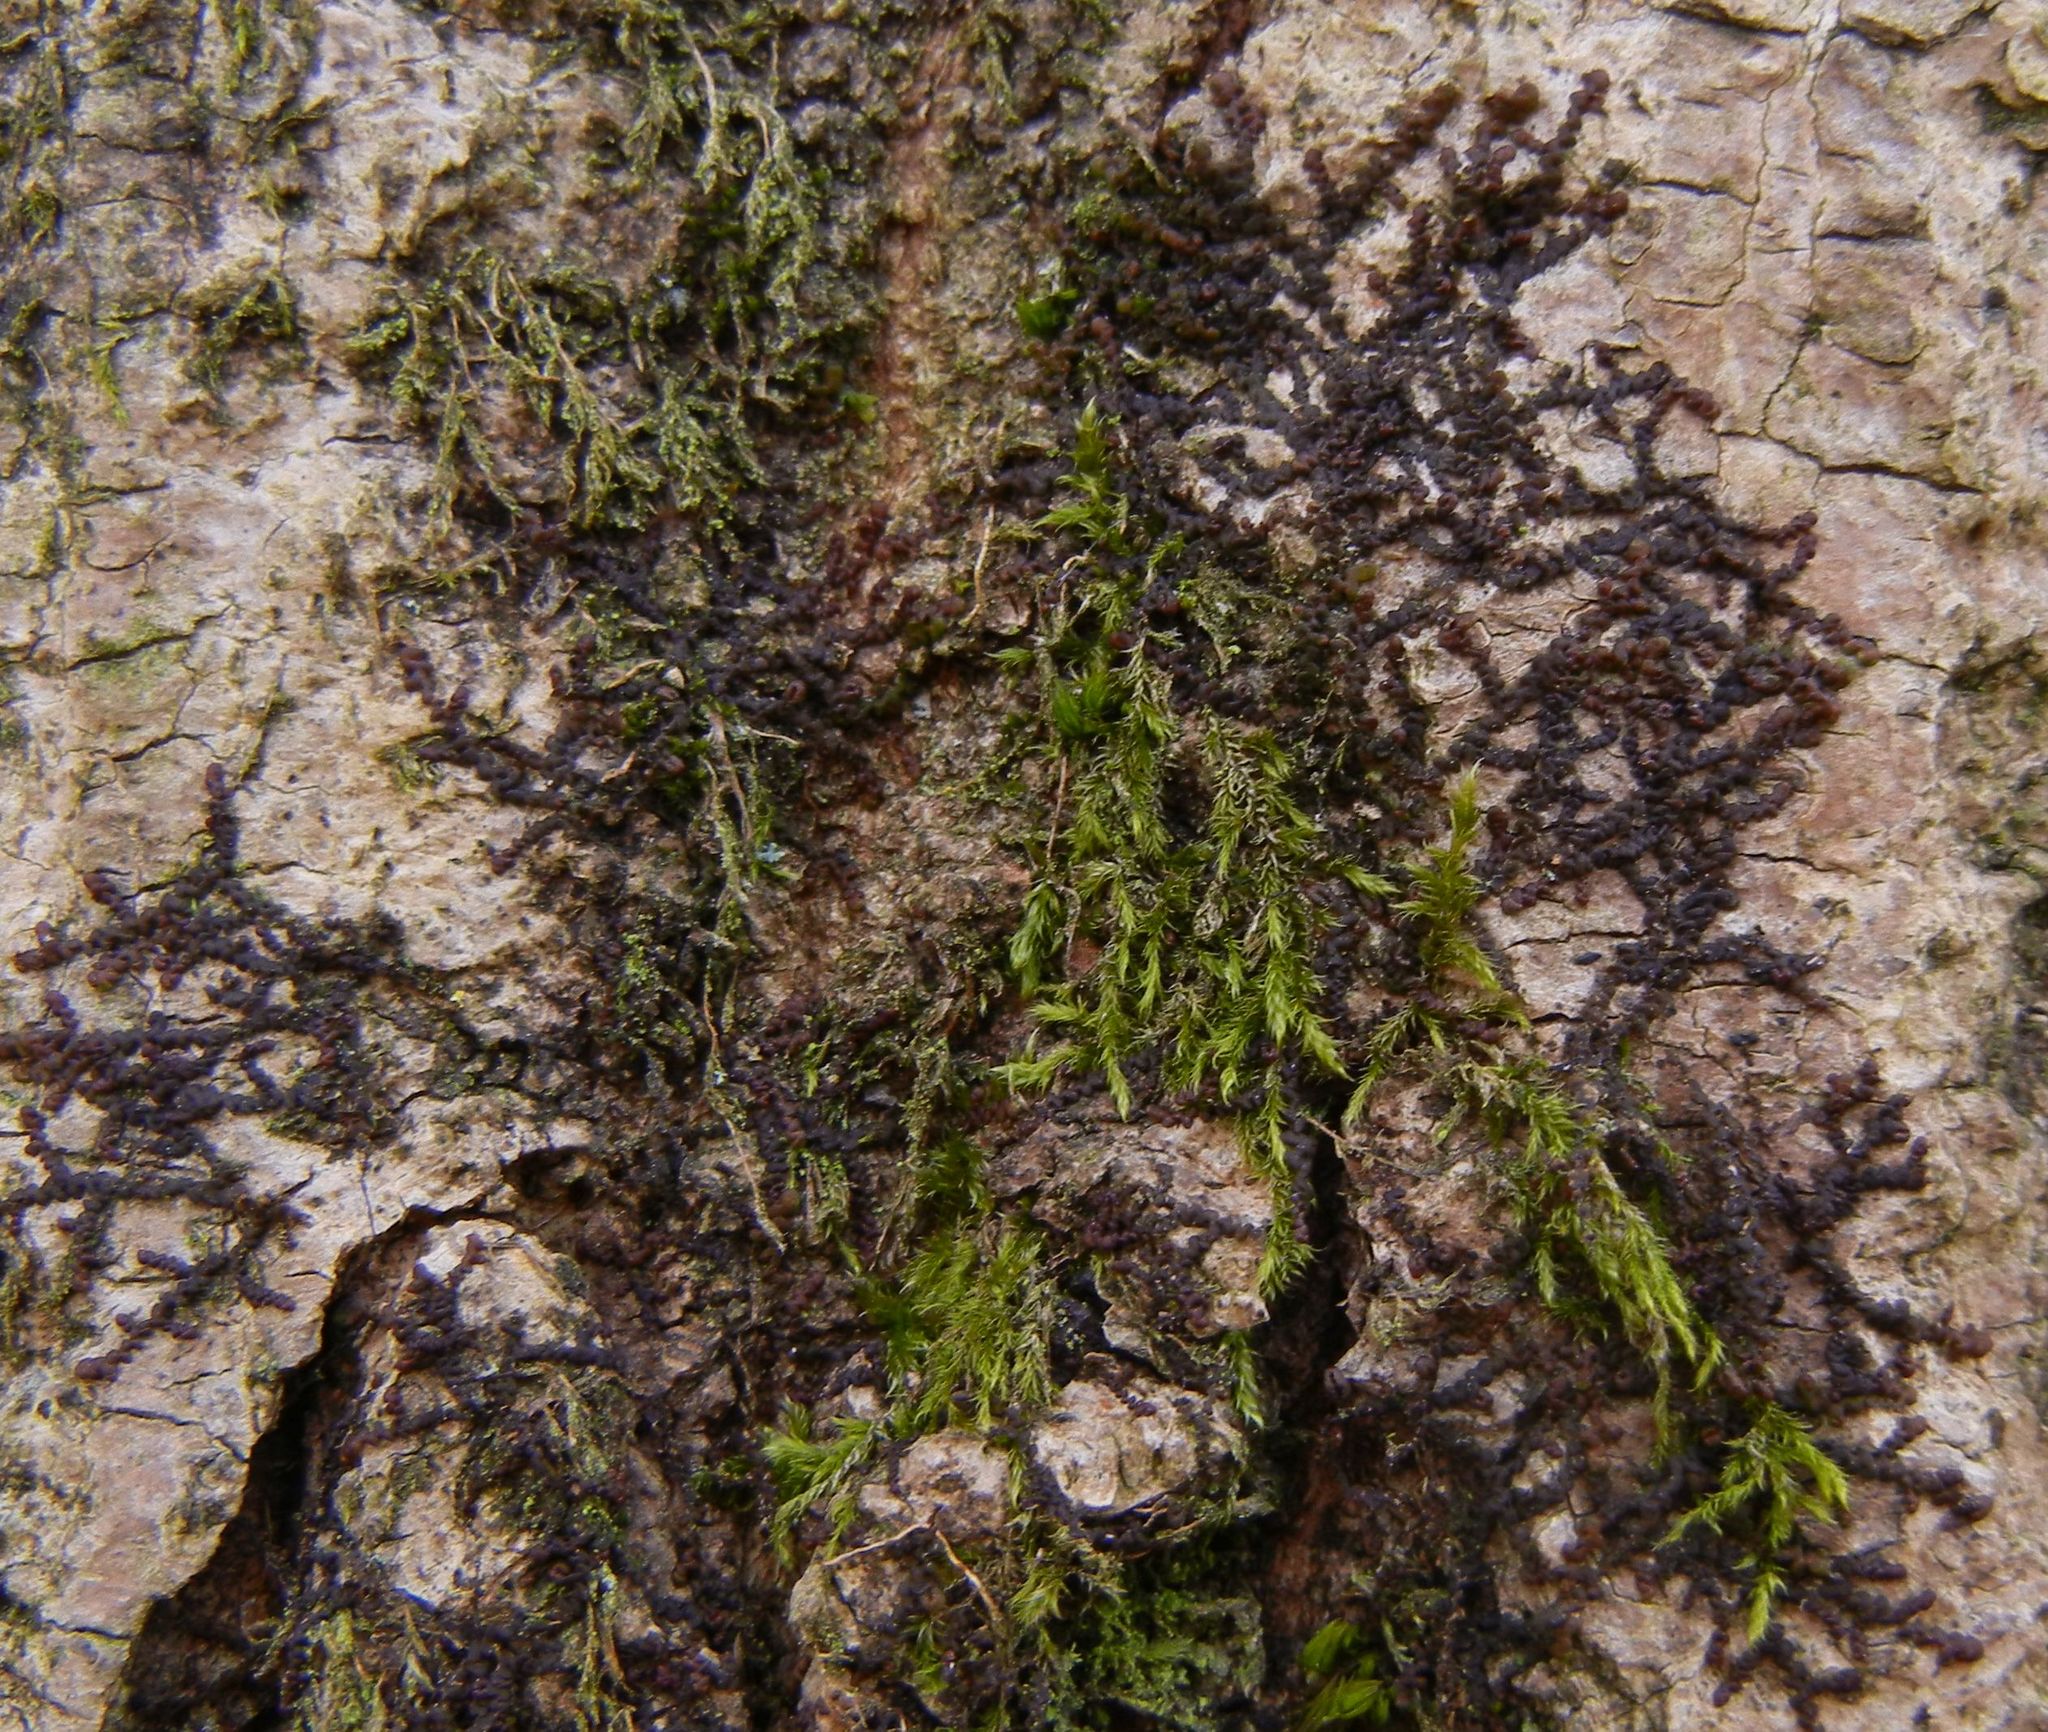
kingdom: Plantae
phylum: Marchantiophyta
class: Jungermanniopsida
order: Porellales
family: Frullaniaceae
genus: Frullania
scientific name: Frullania dilatata
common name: Dilated scalewort
